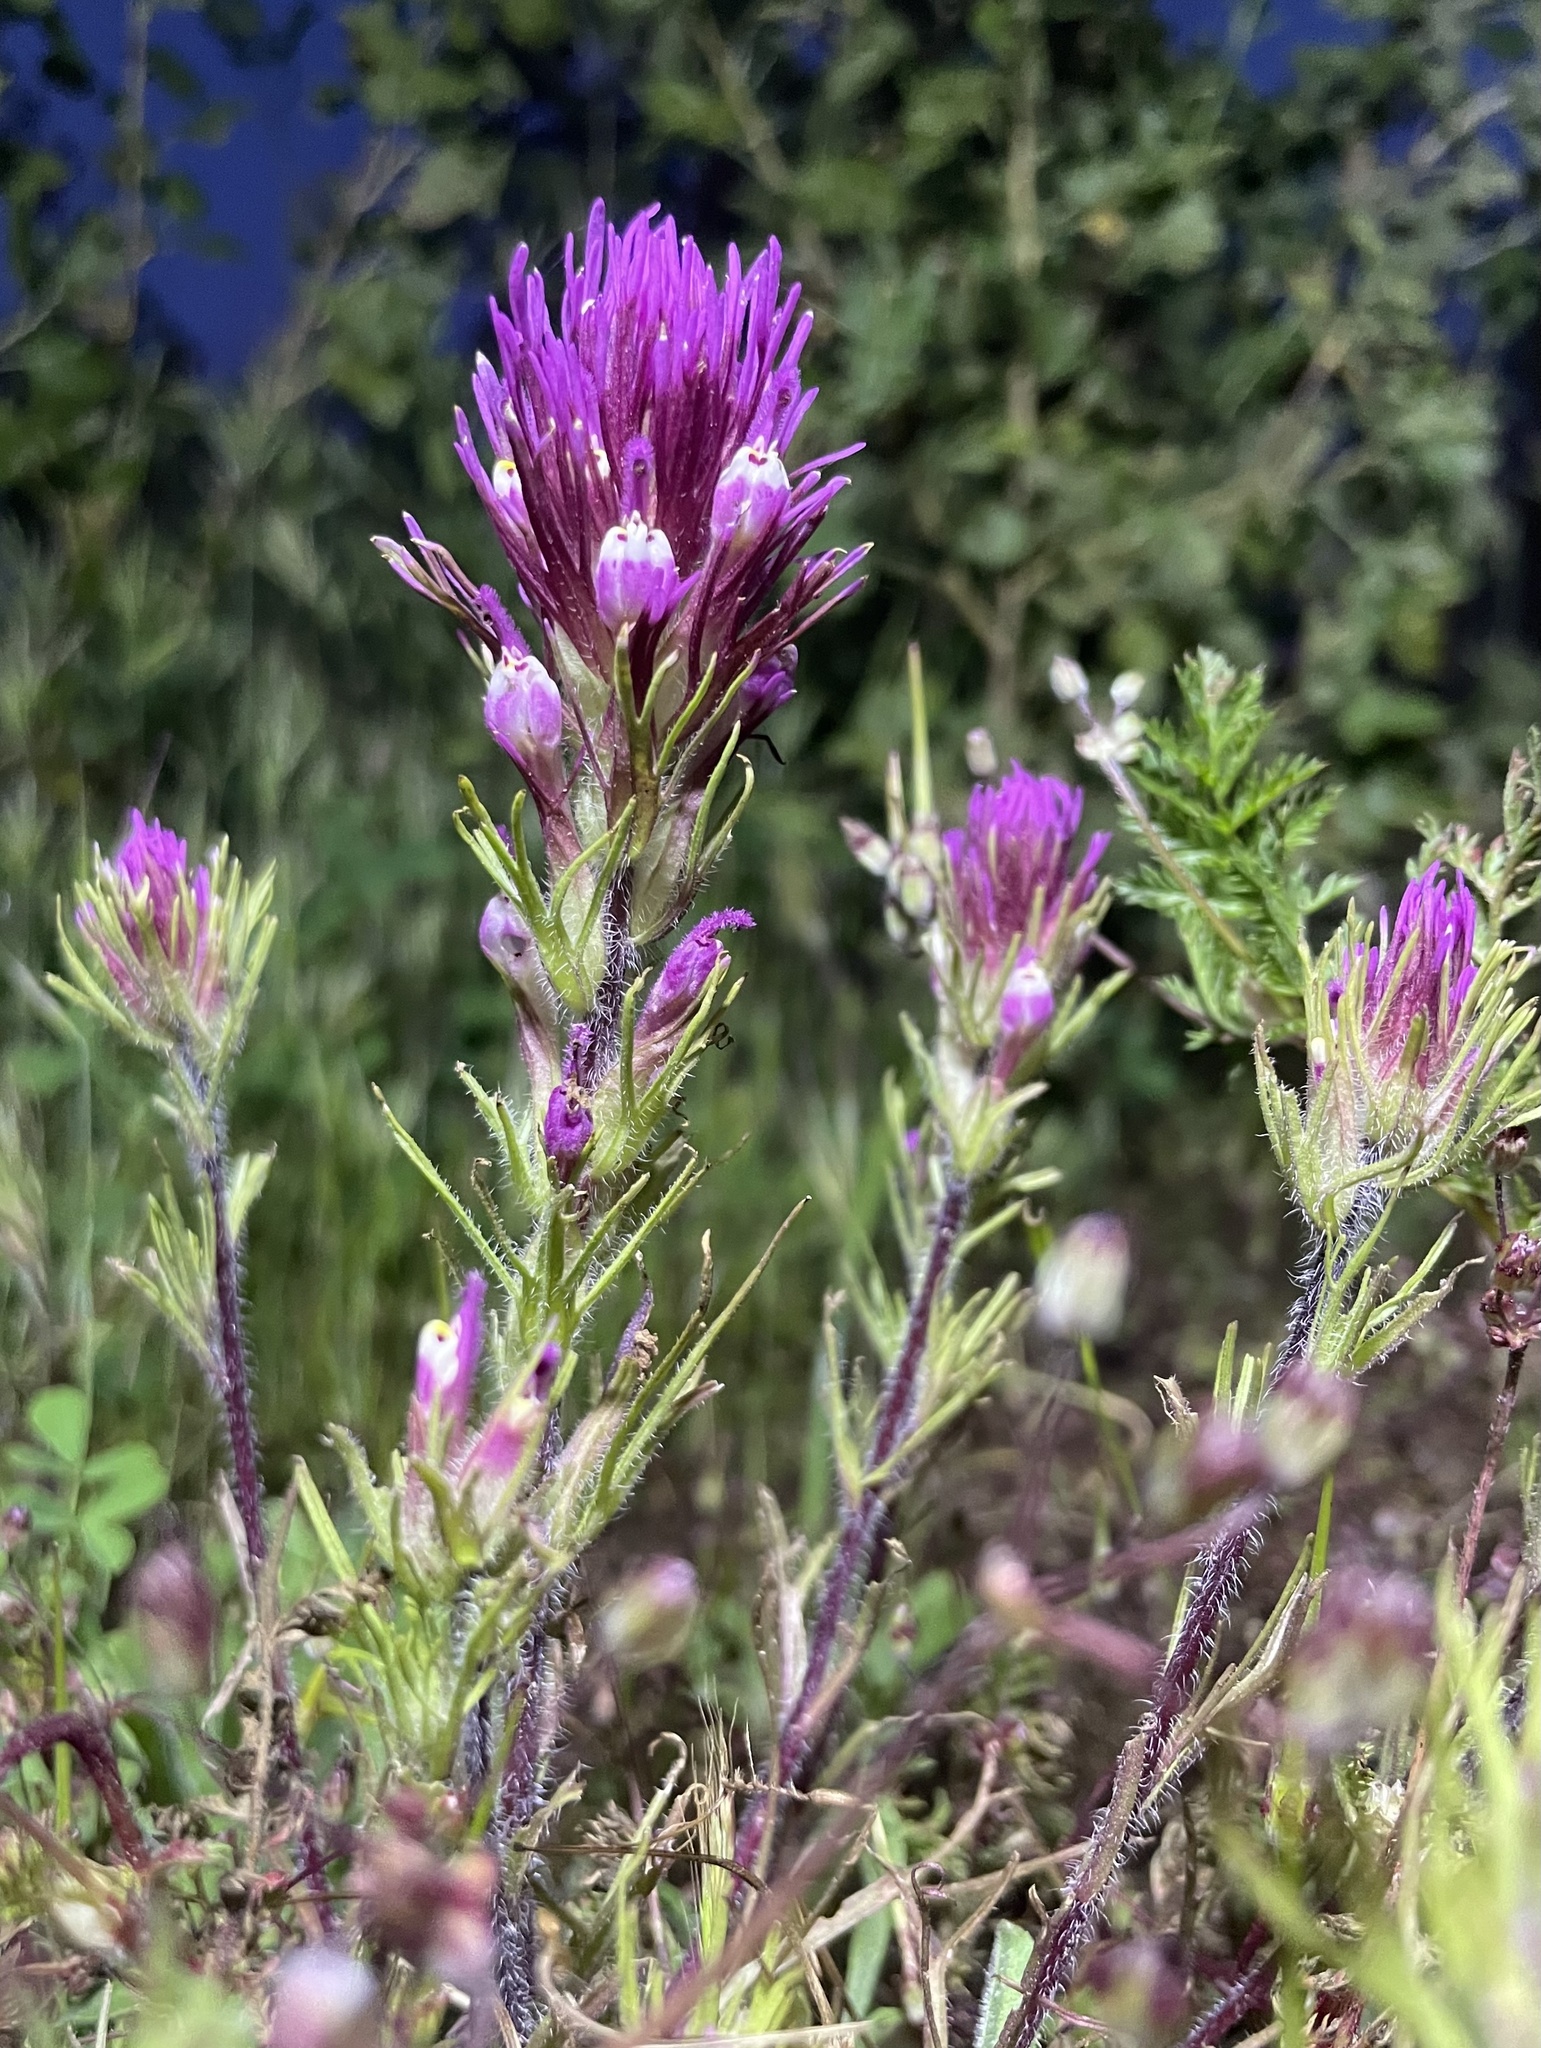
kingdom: Plantae
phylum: Tracheophyta
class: Magnoliopsida
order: Lamiales
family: Orobanchaceae
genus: Castilleja
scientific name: Castilleja exserta
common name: Purple owl-clover
